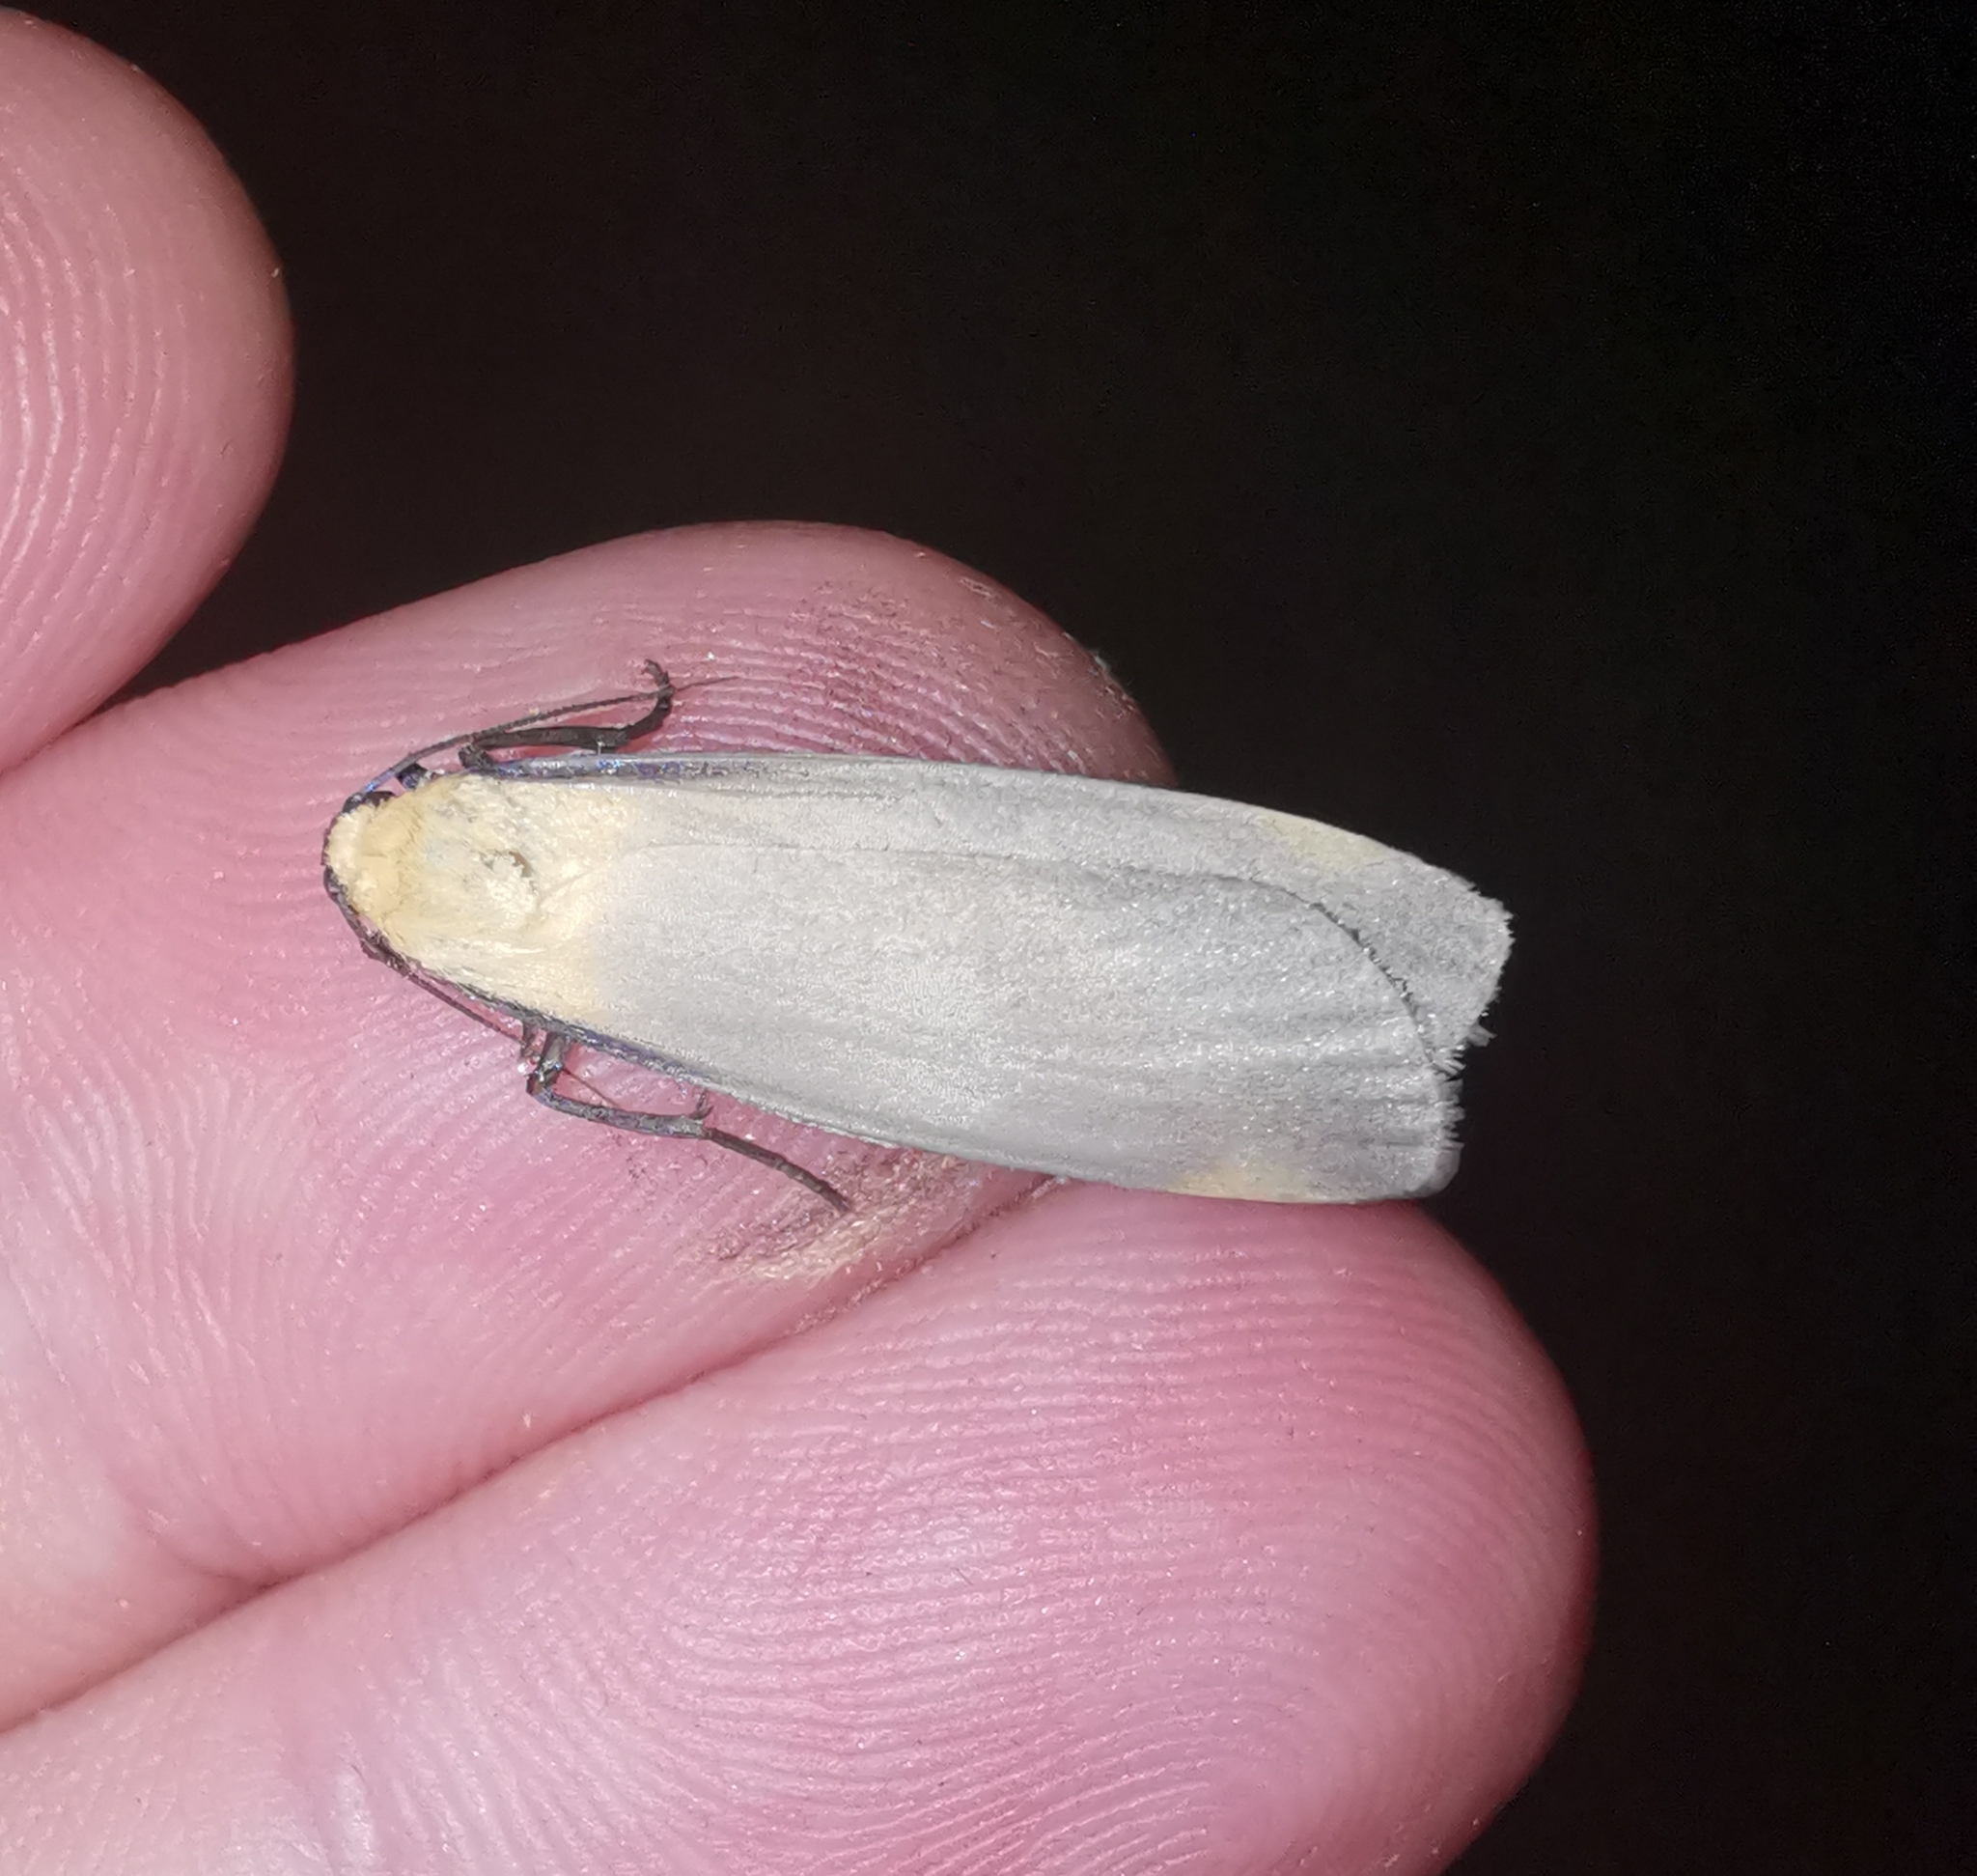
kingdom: Animalia
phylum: Arthropoda
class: Insecta
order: Lepidoptera
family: Erebidae
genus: Lithosia
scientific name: Lithosia quadra
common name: Four-spotted footman
